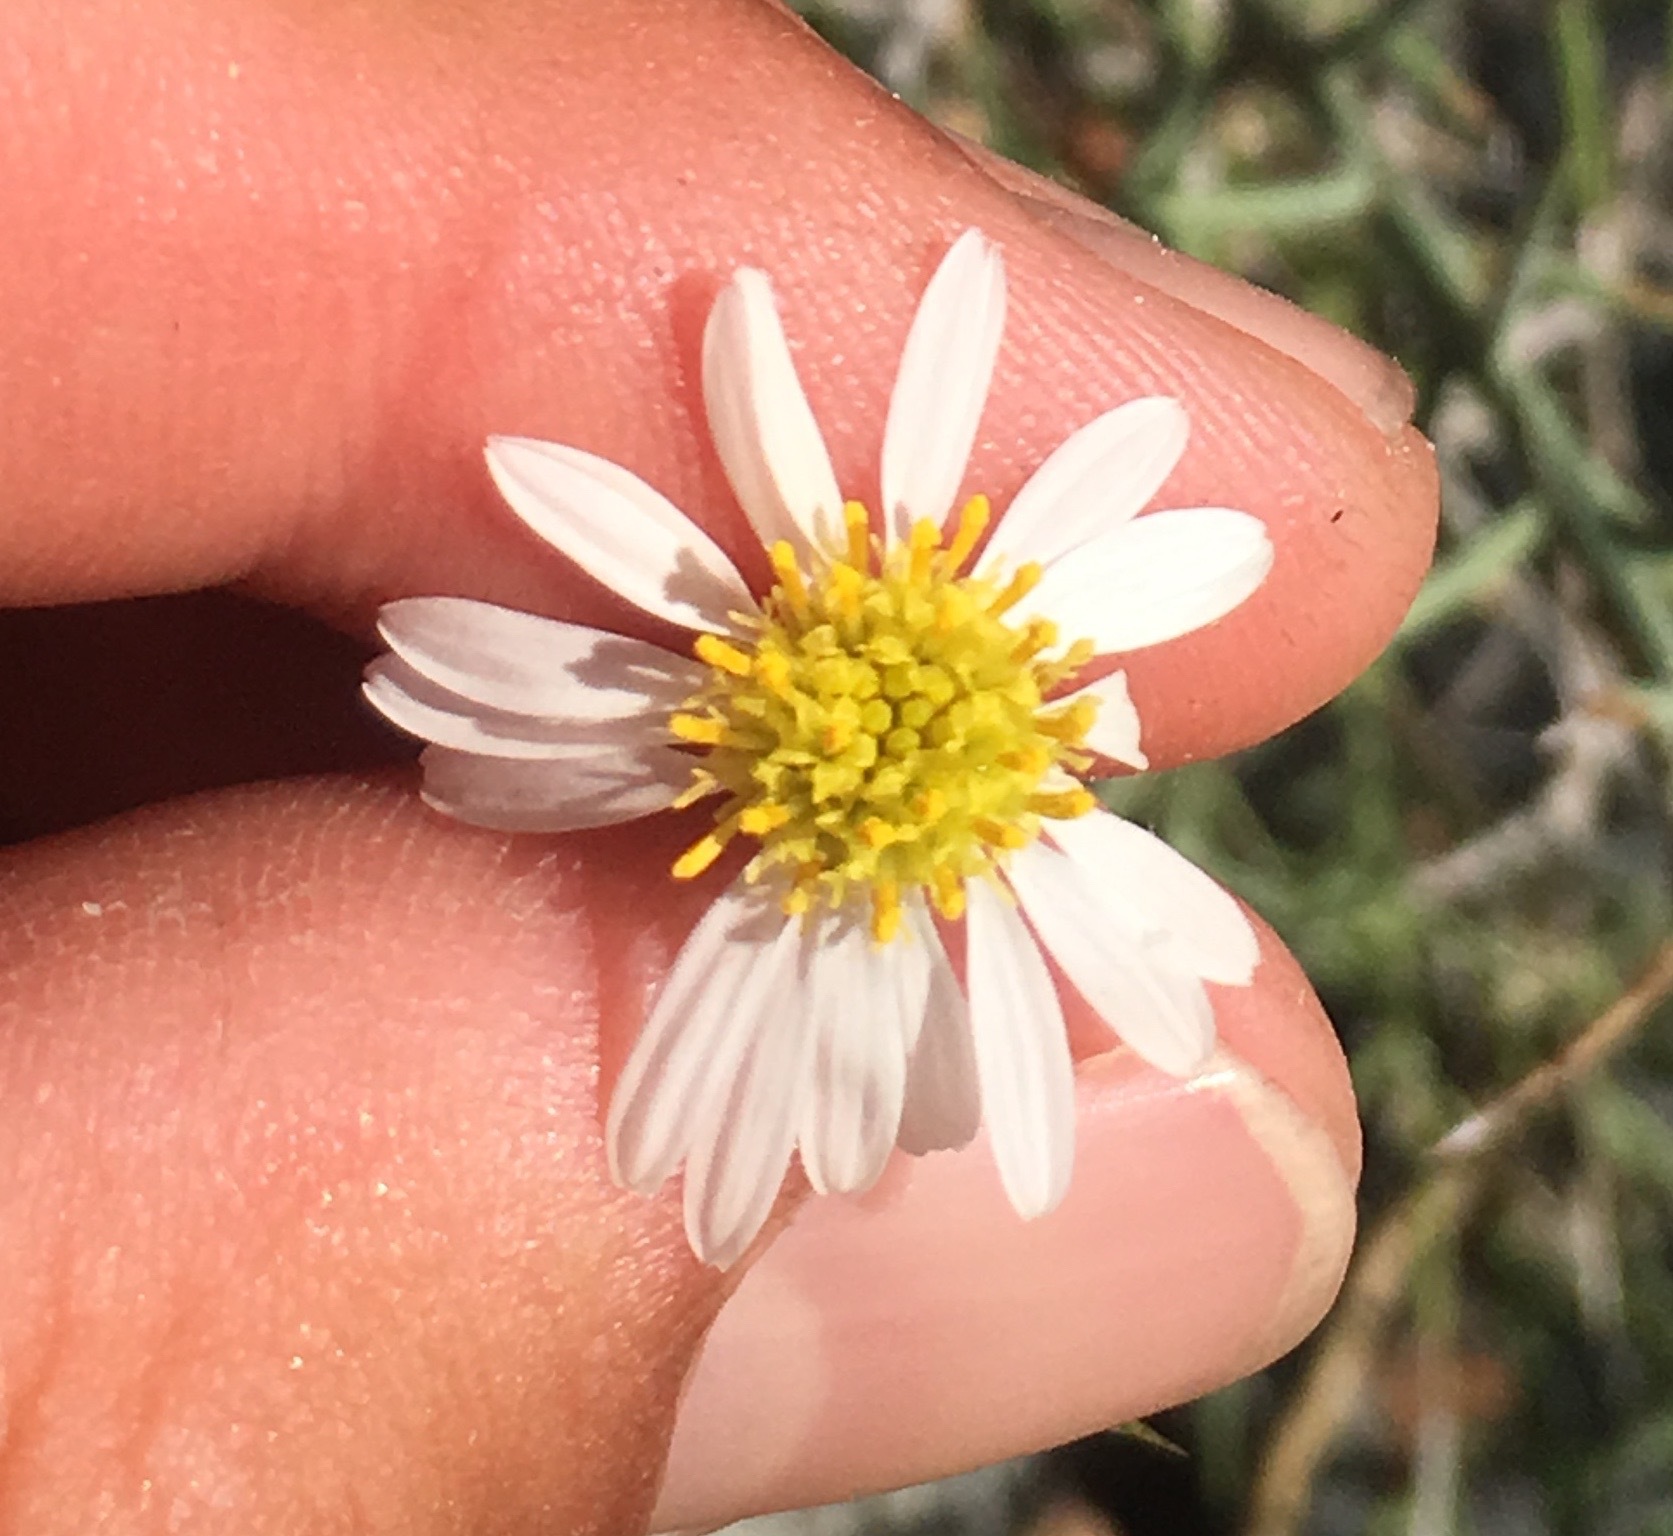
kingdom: Plantae
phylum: Tracheophyta
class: Magnoliopsida
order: Asterales
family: Asteraceae
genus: Chloracantha
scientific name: Chloracantha spinosa
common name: Mexican devilweed
